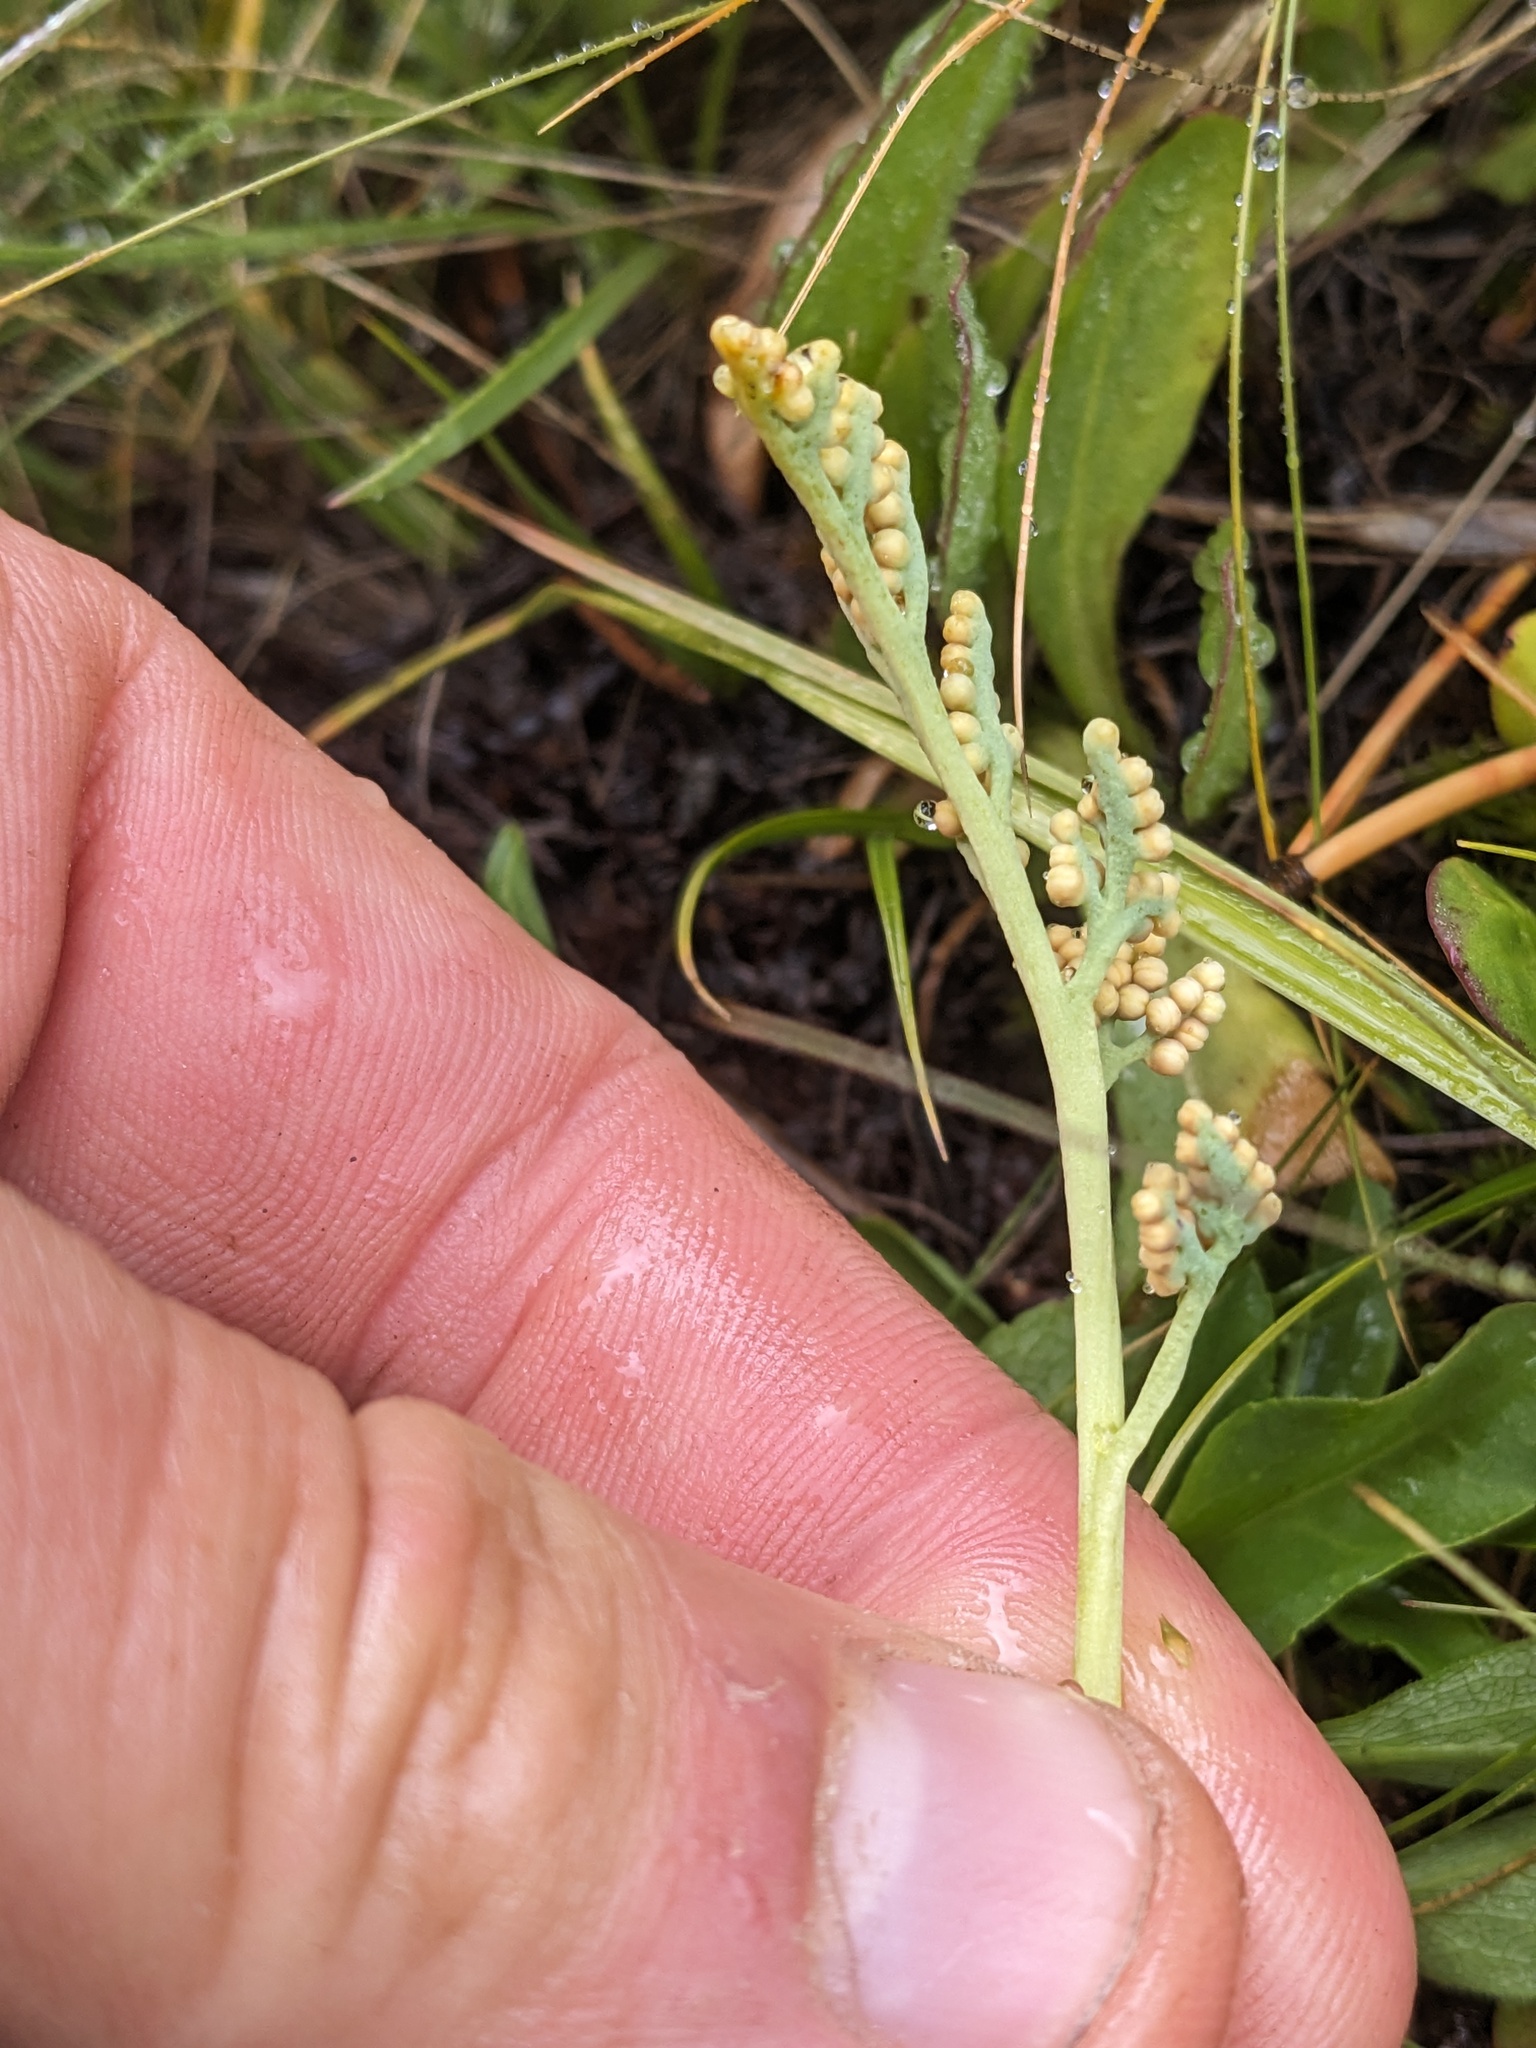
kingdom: Plantae
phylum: Tracheophyta
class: Polypodiopsida
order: Ophioglossales
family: Ophioglossaceae
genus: Botrychium
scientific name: Botrychium simplex
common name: Least moonwort
